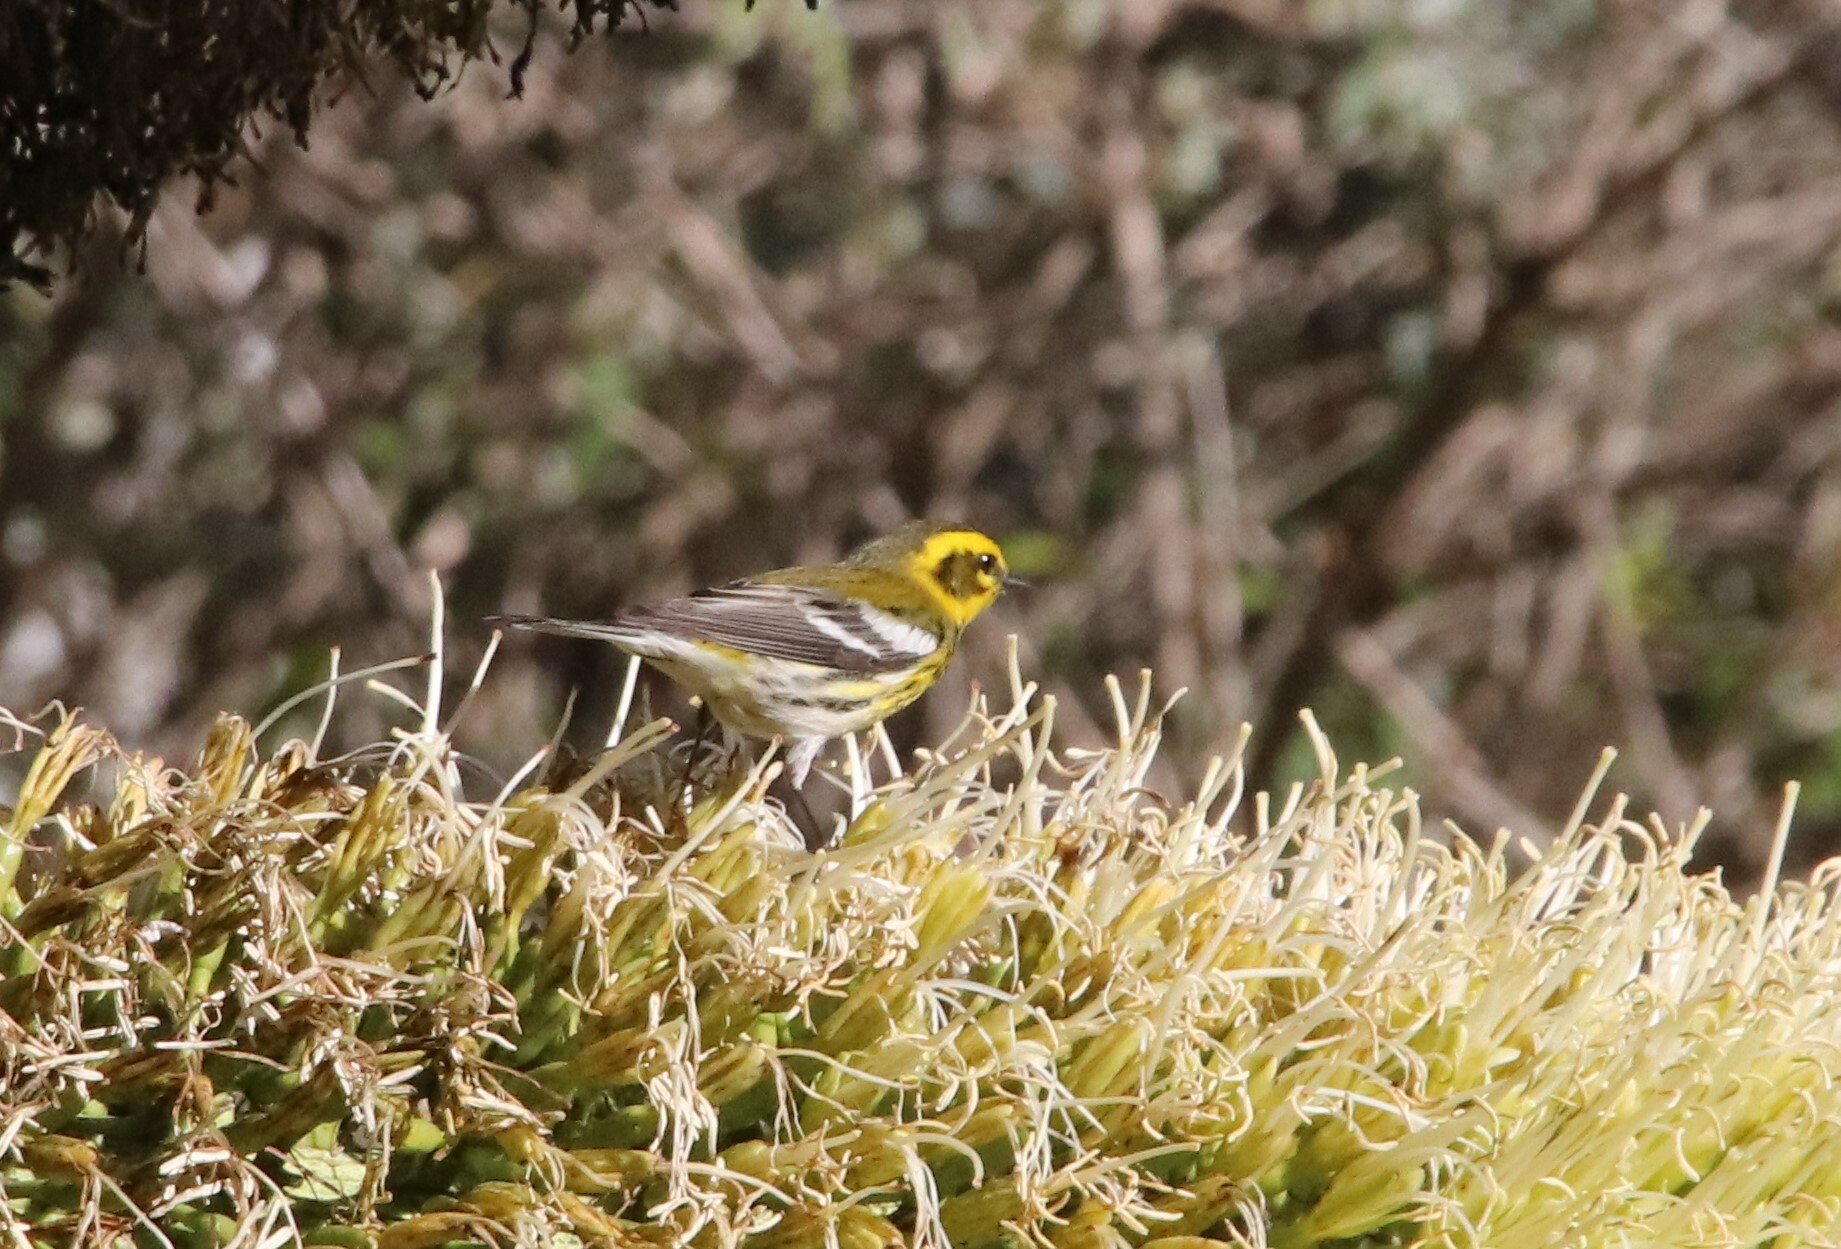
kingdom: Animalia
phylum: Chordata
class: Aves
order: Passeriformes
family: Parulidae
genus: Setophaga
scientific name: Setophaga townsendi
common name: Townsend's warbler
